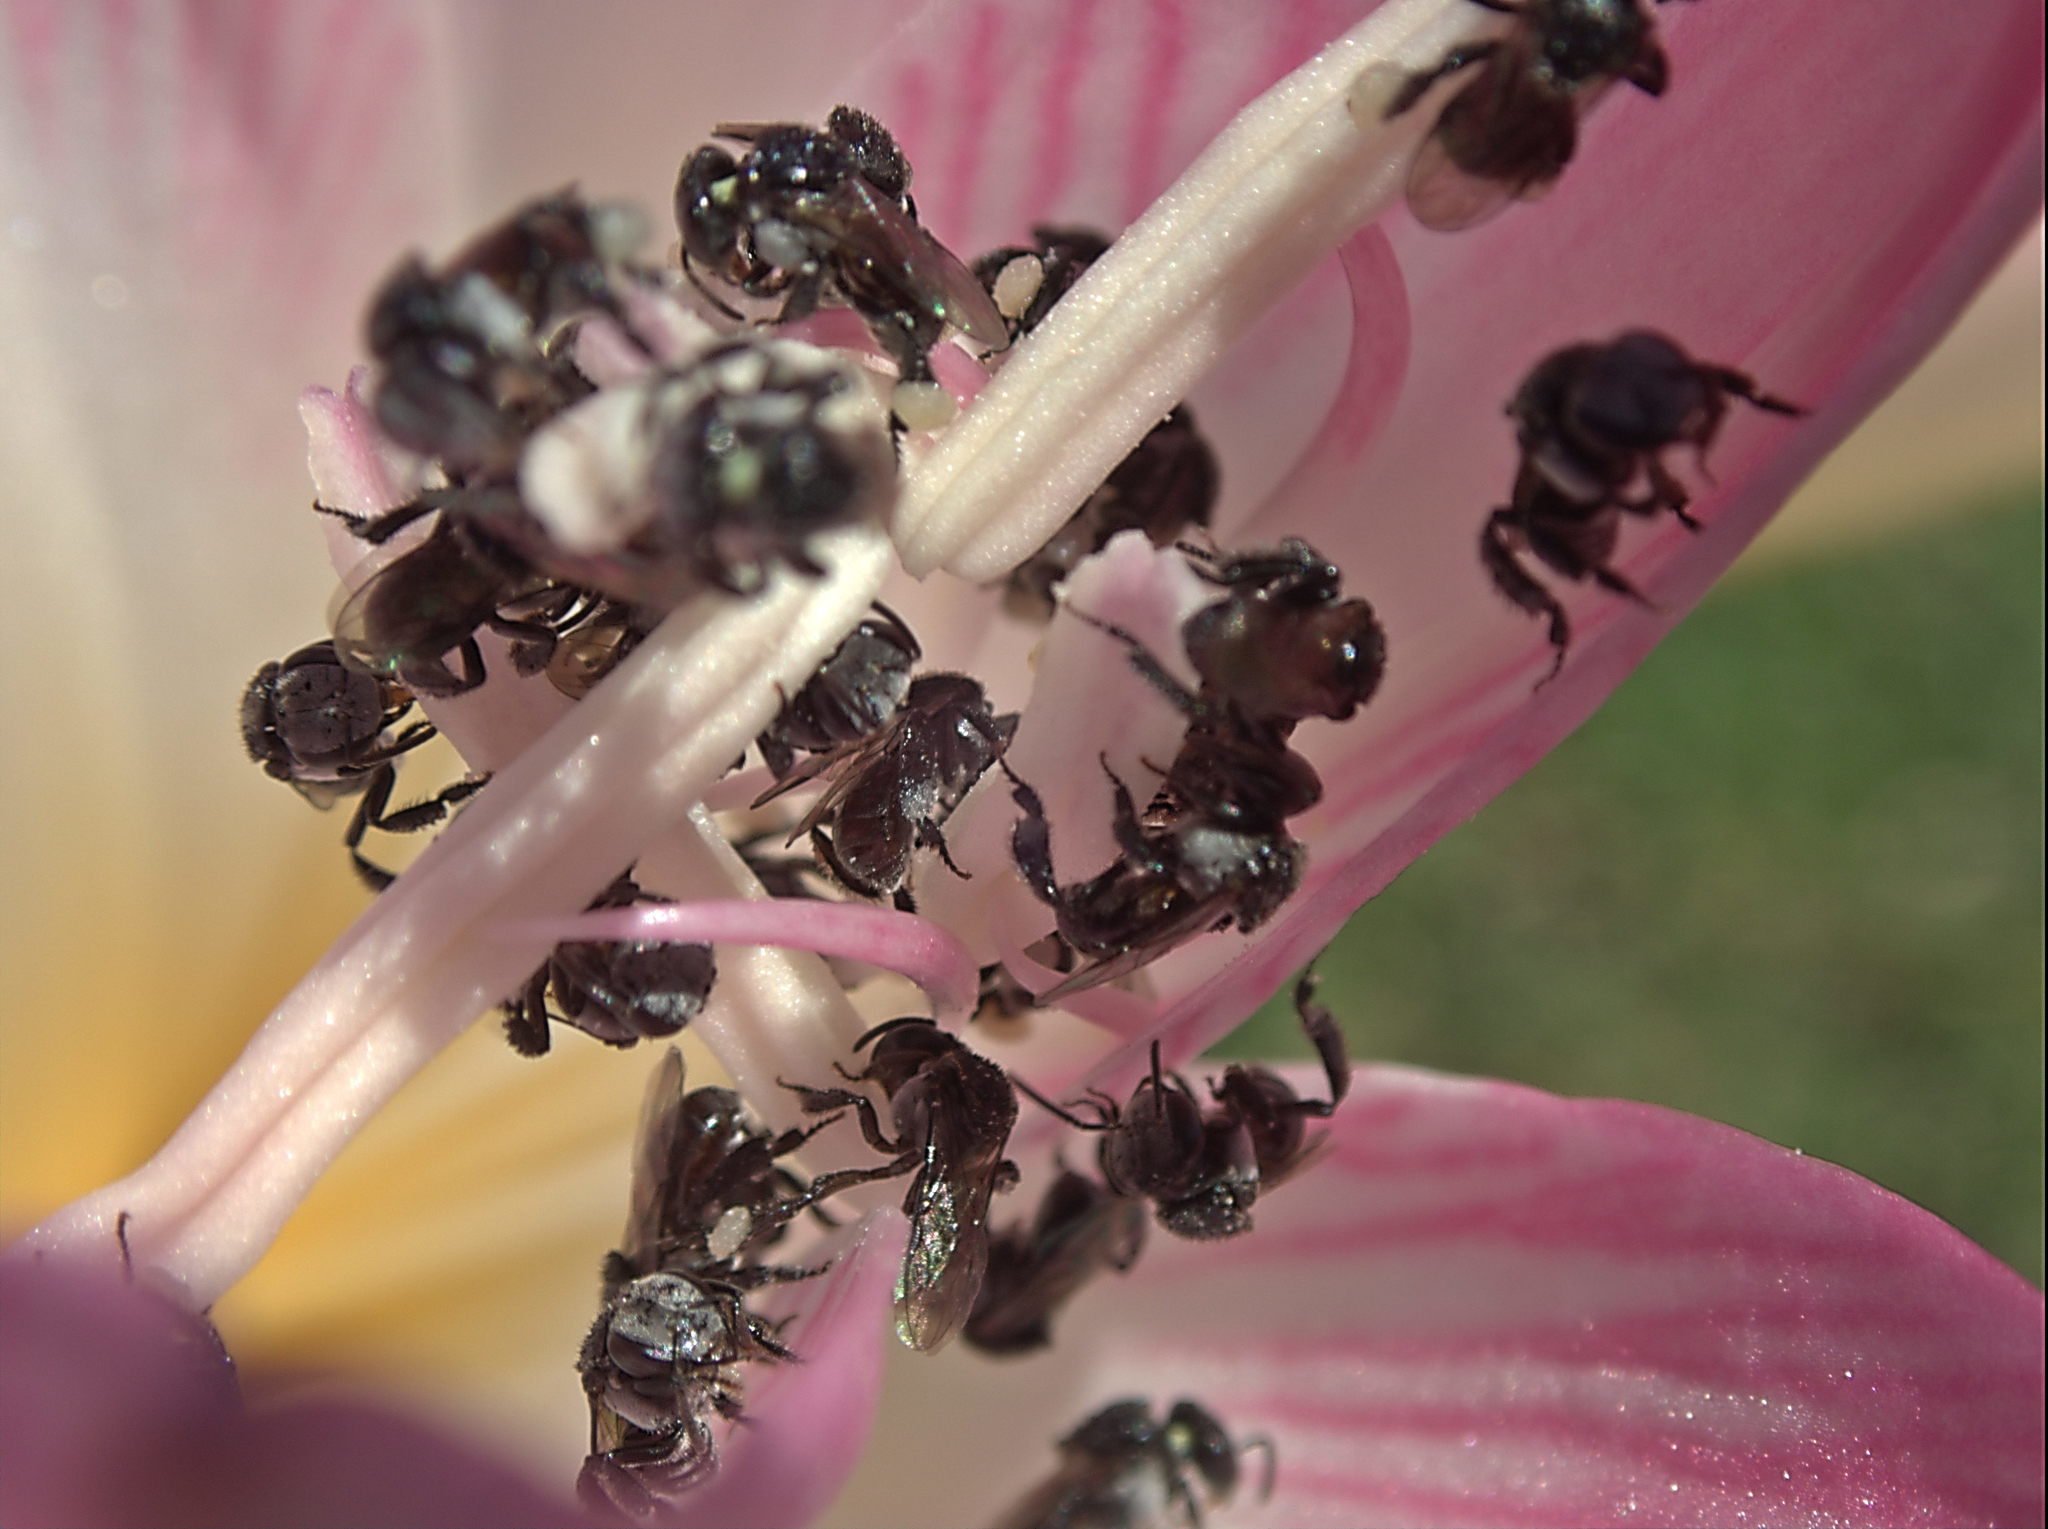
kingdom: Animalia
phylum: Arthropoda
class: Insecta
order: Hymenoptera
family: Apidae
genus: Tetragonula
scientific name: Tetragonula carbonaria
